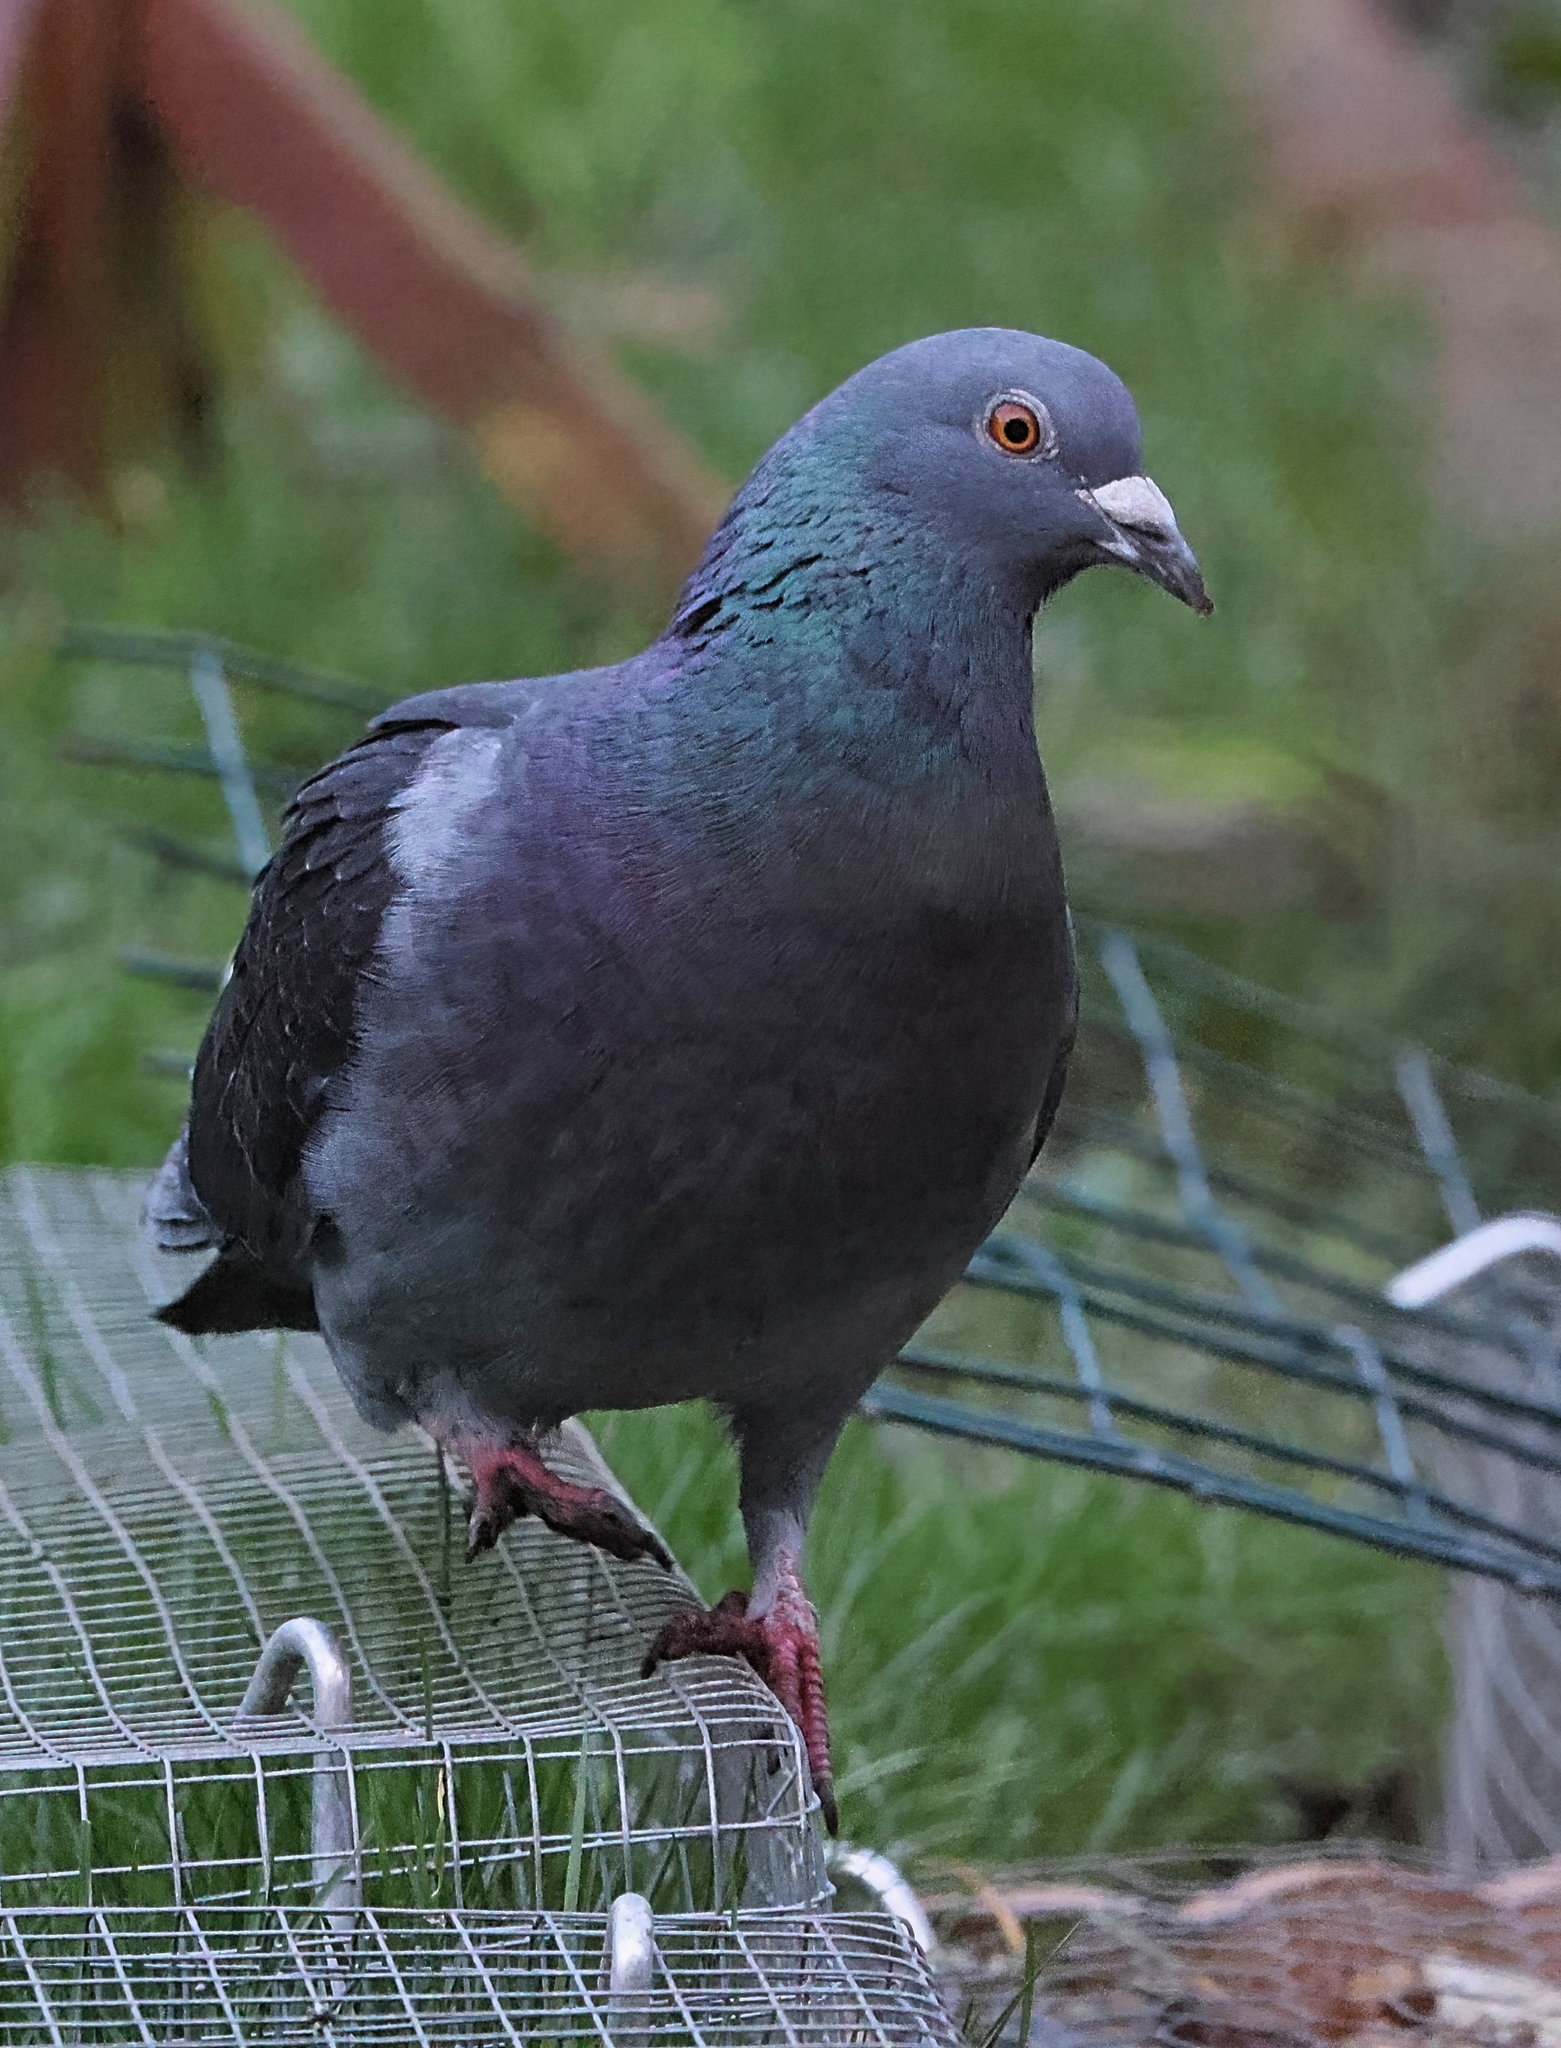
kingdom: Animalia
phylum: Chordata
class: Aves
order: Columbiformes
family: Columbidae
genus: Columba
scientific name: Columba livia
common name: Rock pigeon
